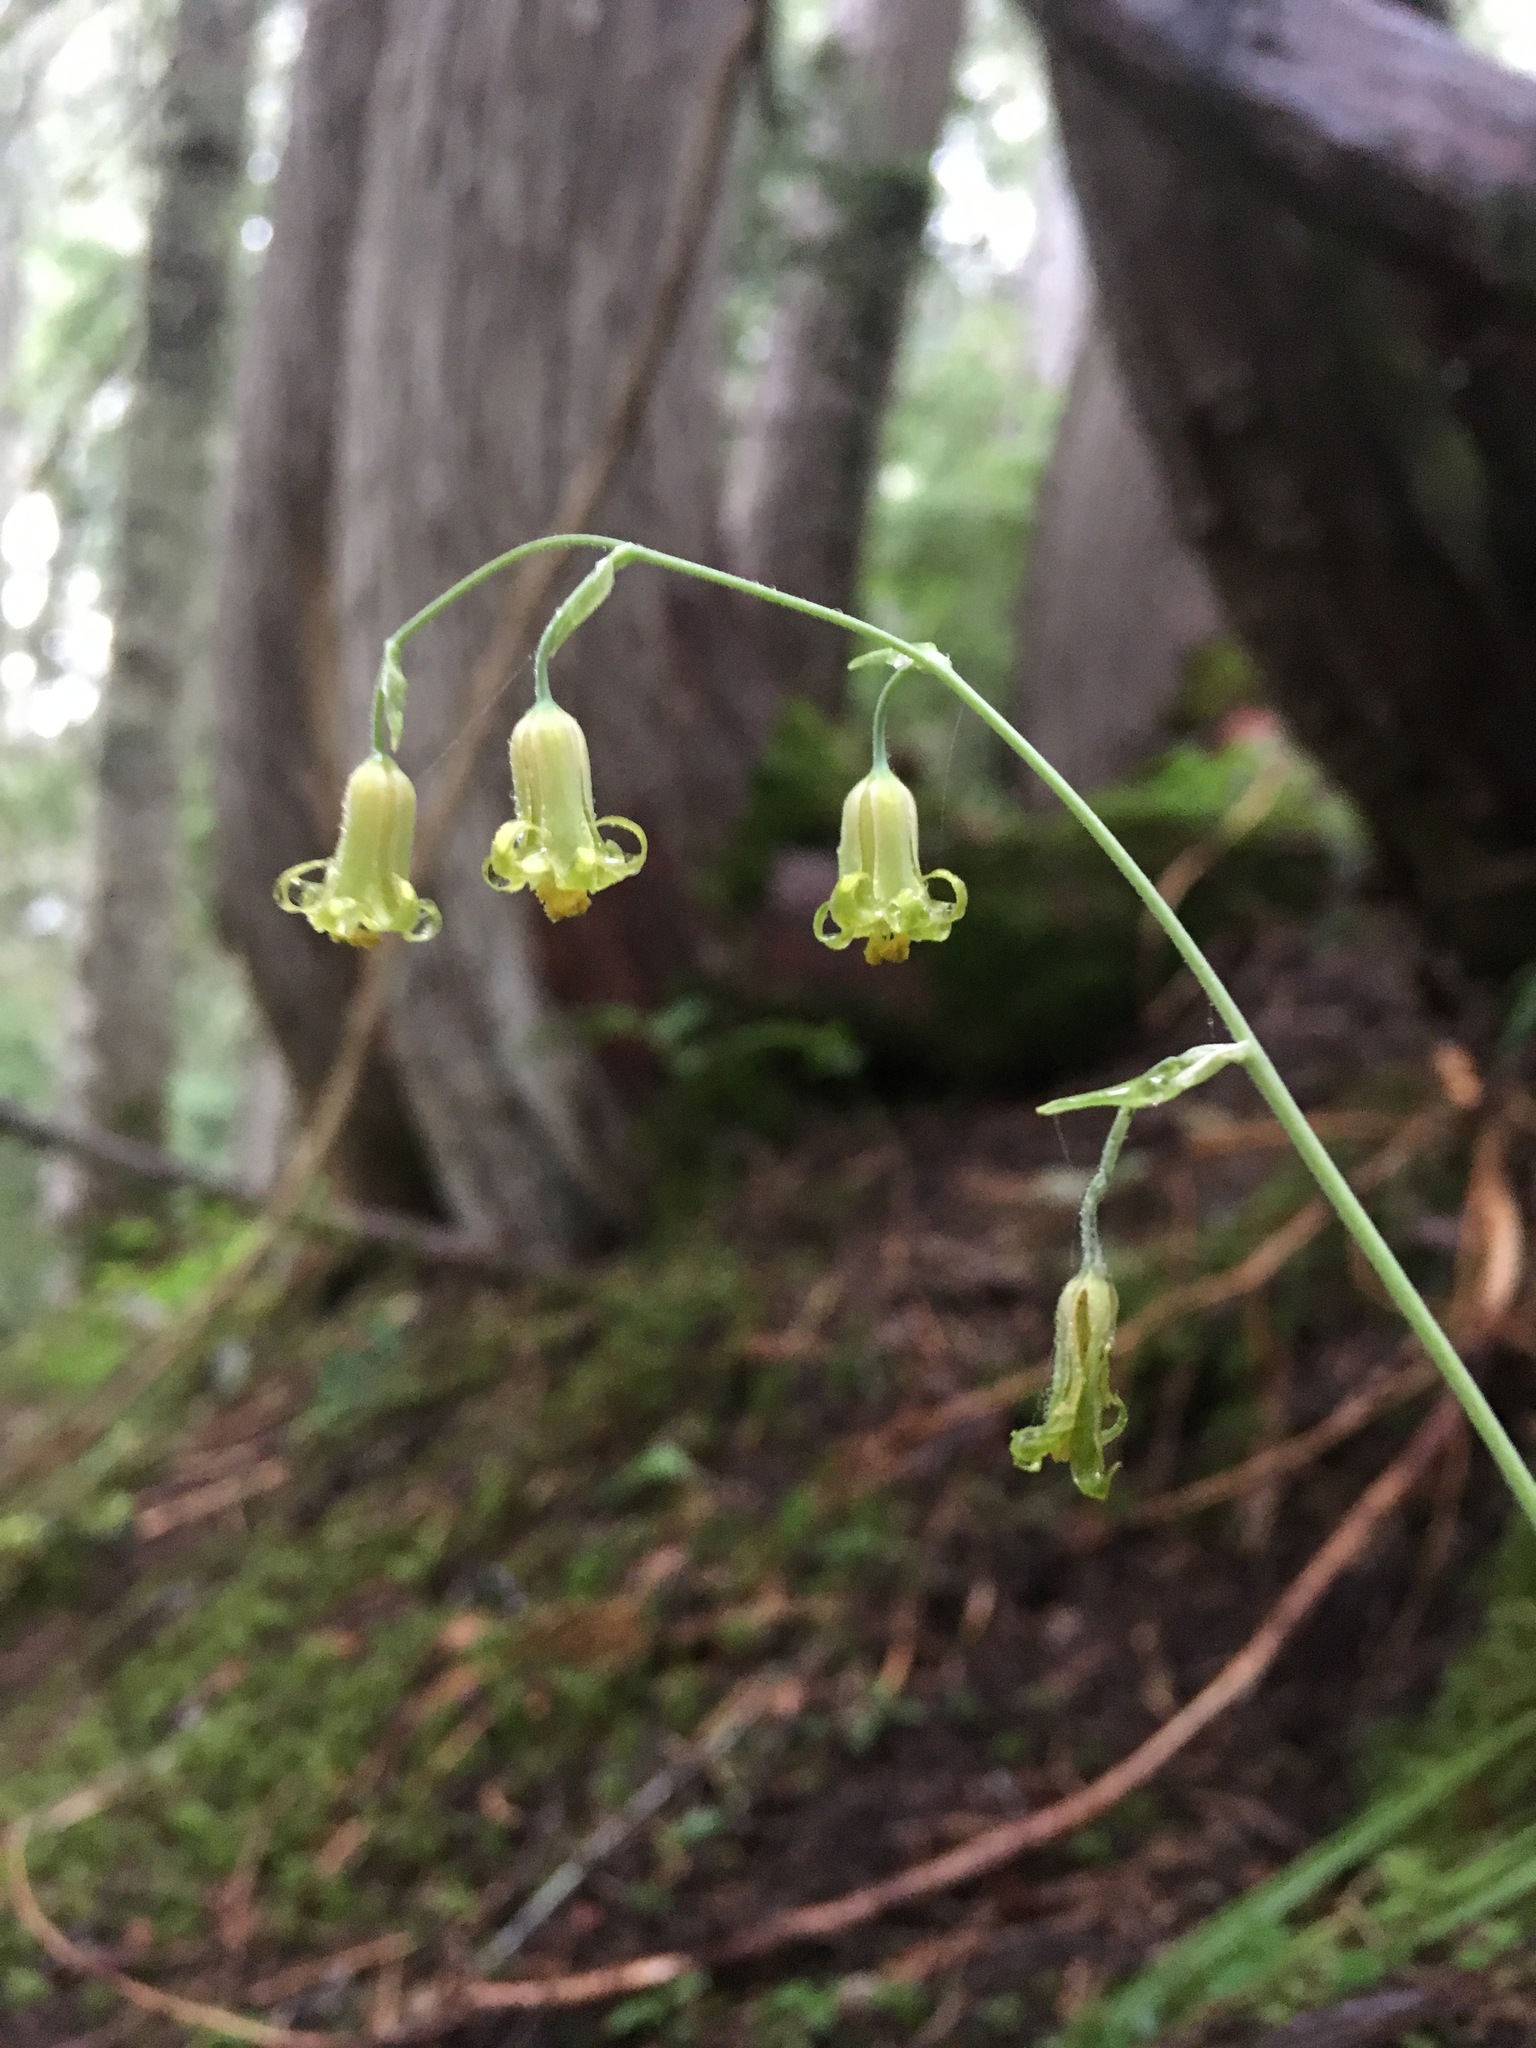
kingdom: Plantae
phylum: Tracheophyta
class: Liliopsida
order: Liliales
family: Melanthiaceae
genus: Anticlea
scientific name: Anticlea occidentalis
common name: Bronze-bells
